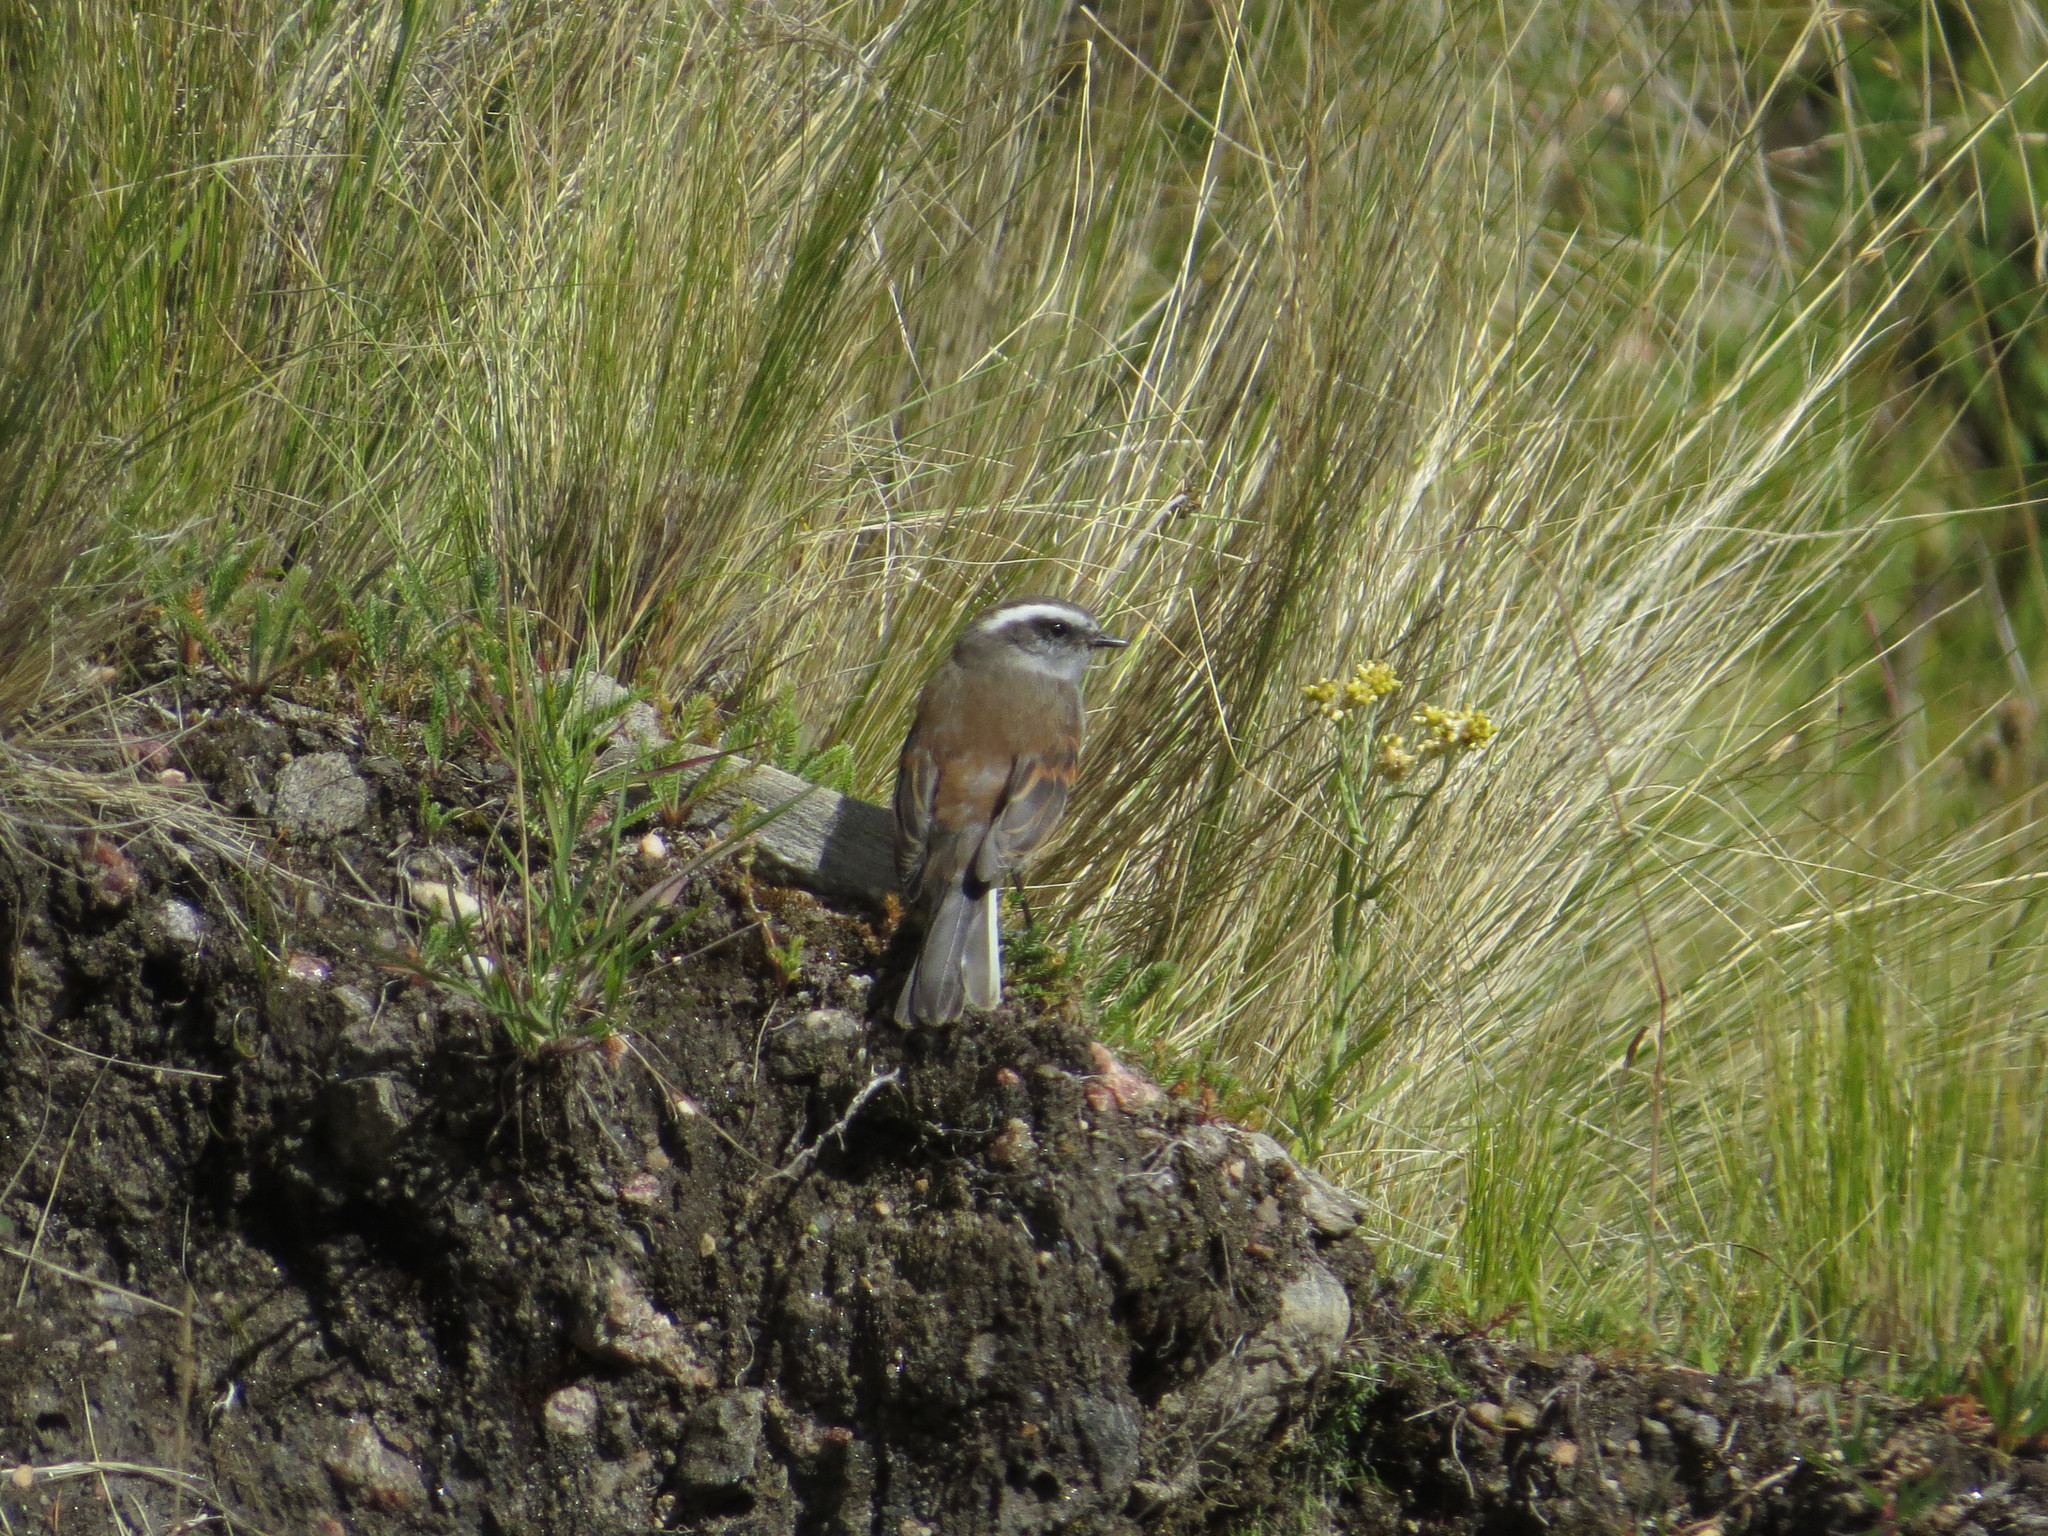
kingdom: Animalia
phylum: Chordata
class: Aves
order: Passeriformes
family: Tyrannidae
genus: Ochthoeca
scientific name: Ochthoeca leucophrys
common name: White-browed chat-tyrant
